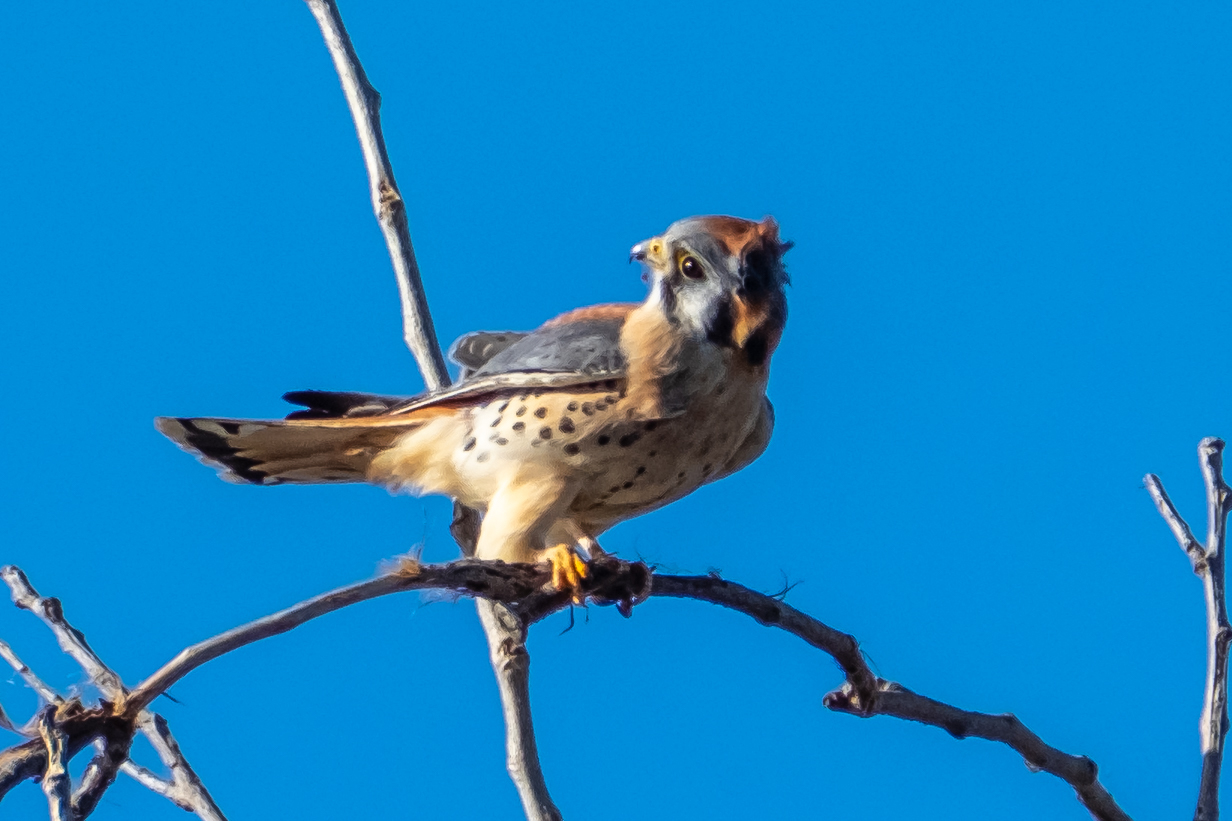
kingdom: Animalia
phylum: Chordata
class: Aves
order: Falconiformes
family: Falconidae
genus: Falco
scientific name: Falco sparverius
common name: American kestrel
